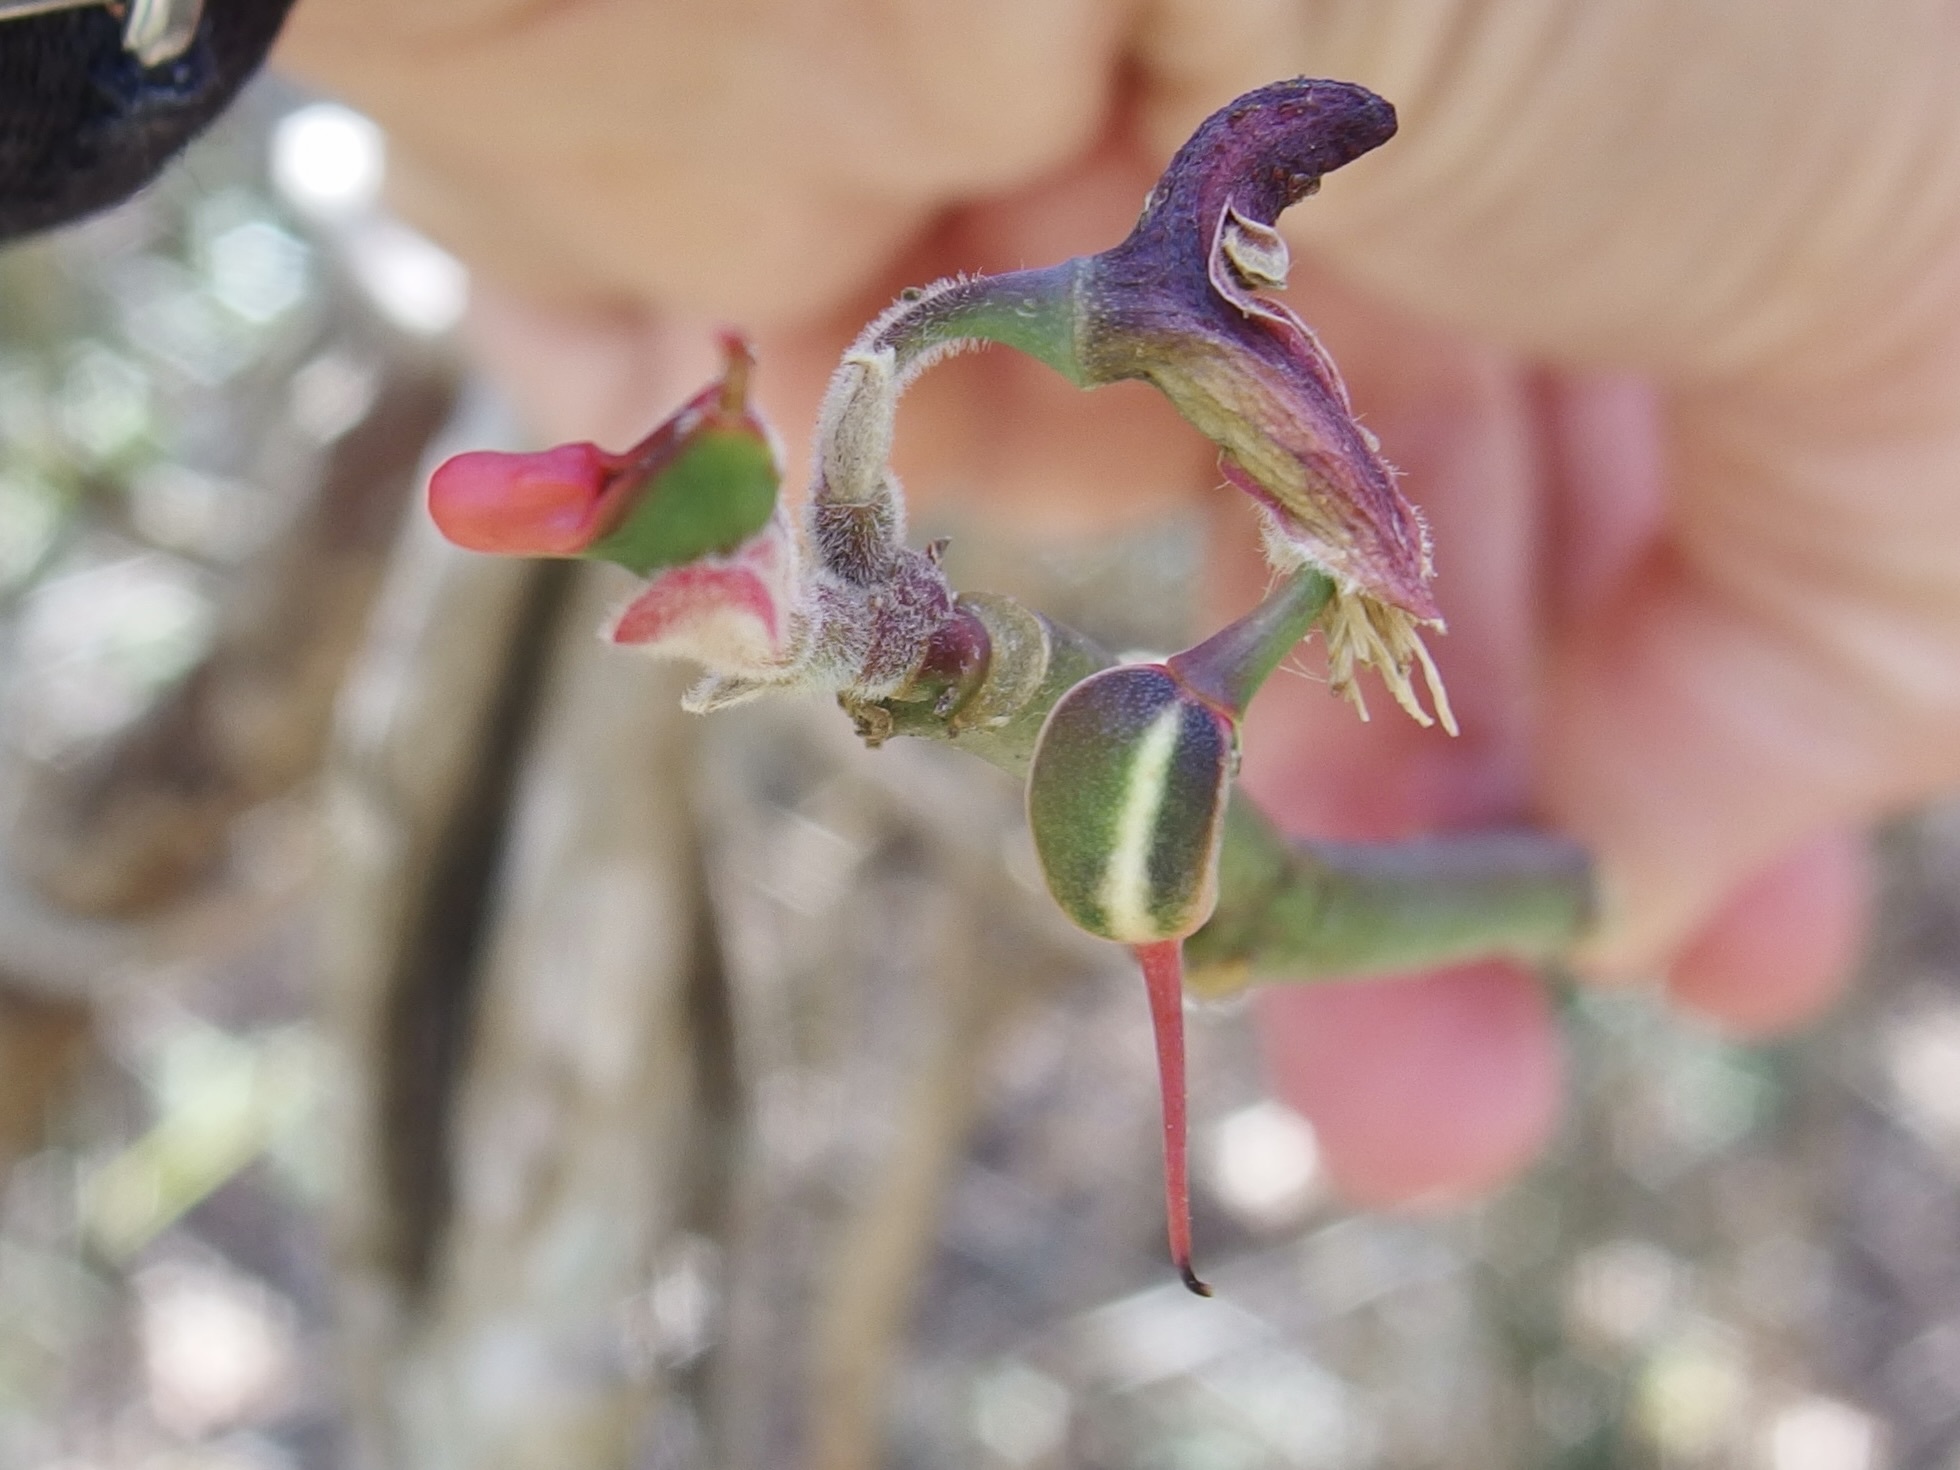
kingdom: Plantae
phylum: Tracheophyta
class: Magnoliopsida
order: Malpighiales
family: Euphorbiaceae
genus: Euphorbia
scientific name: Euphorbia tithymaloides
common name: Slipperplant
